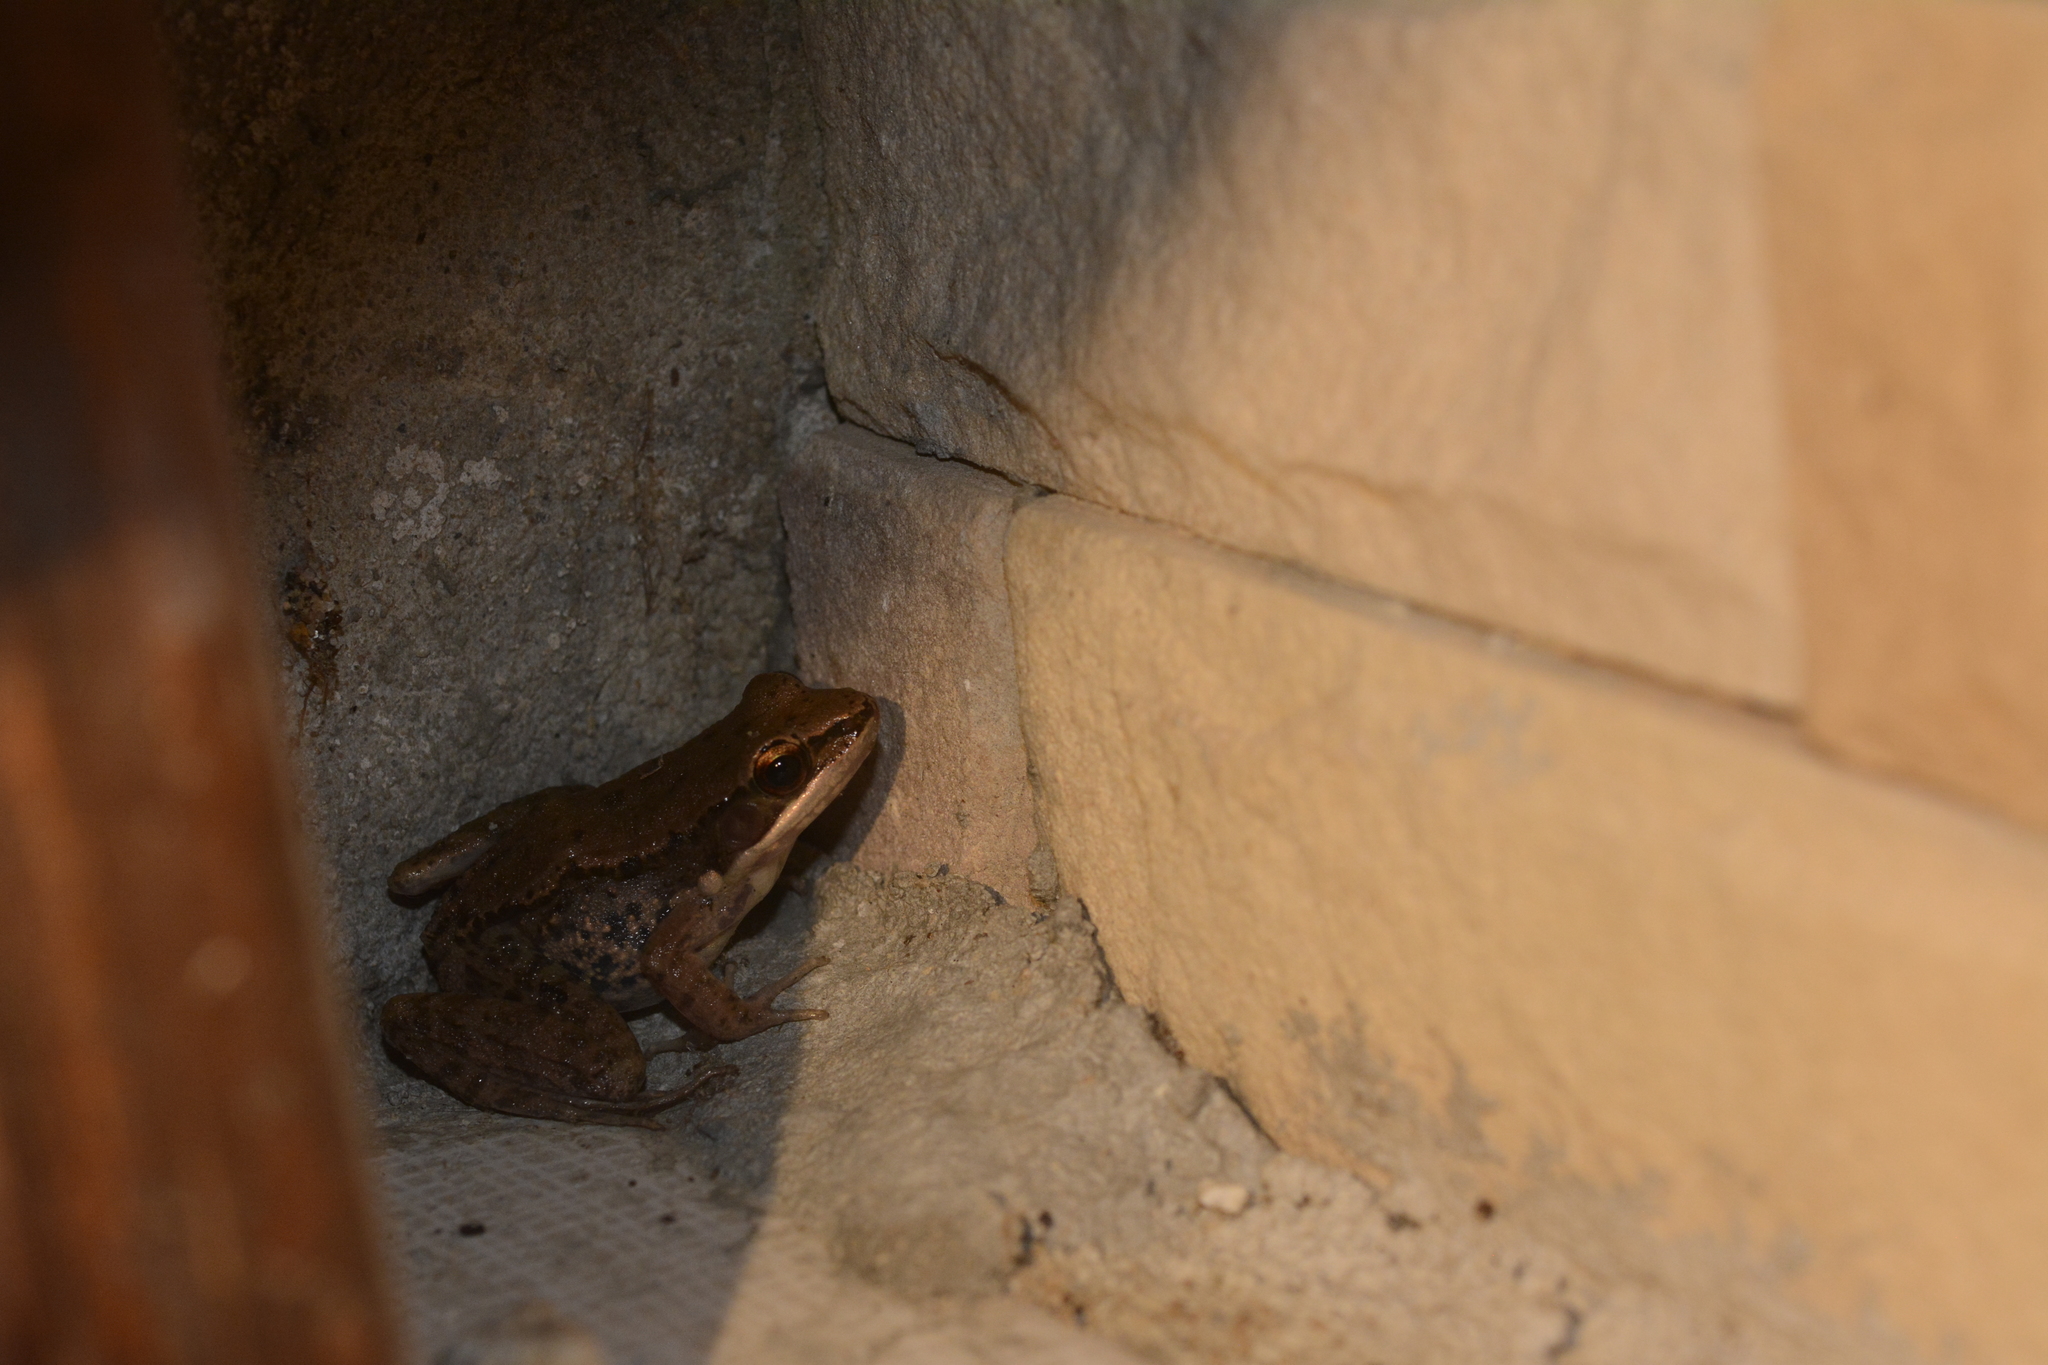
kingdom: Animalia
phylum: Chordata
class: Amphibia
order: Anura
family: Ranidae
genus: Sylvirana
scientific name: Sylvirana nigrovittata
